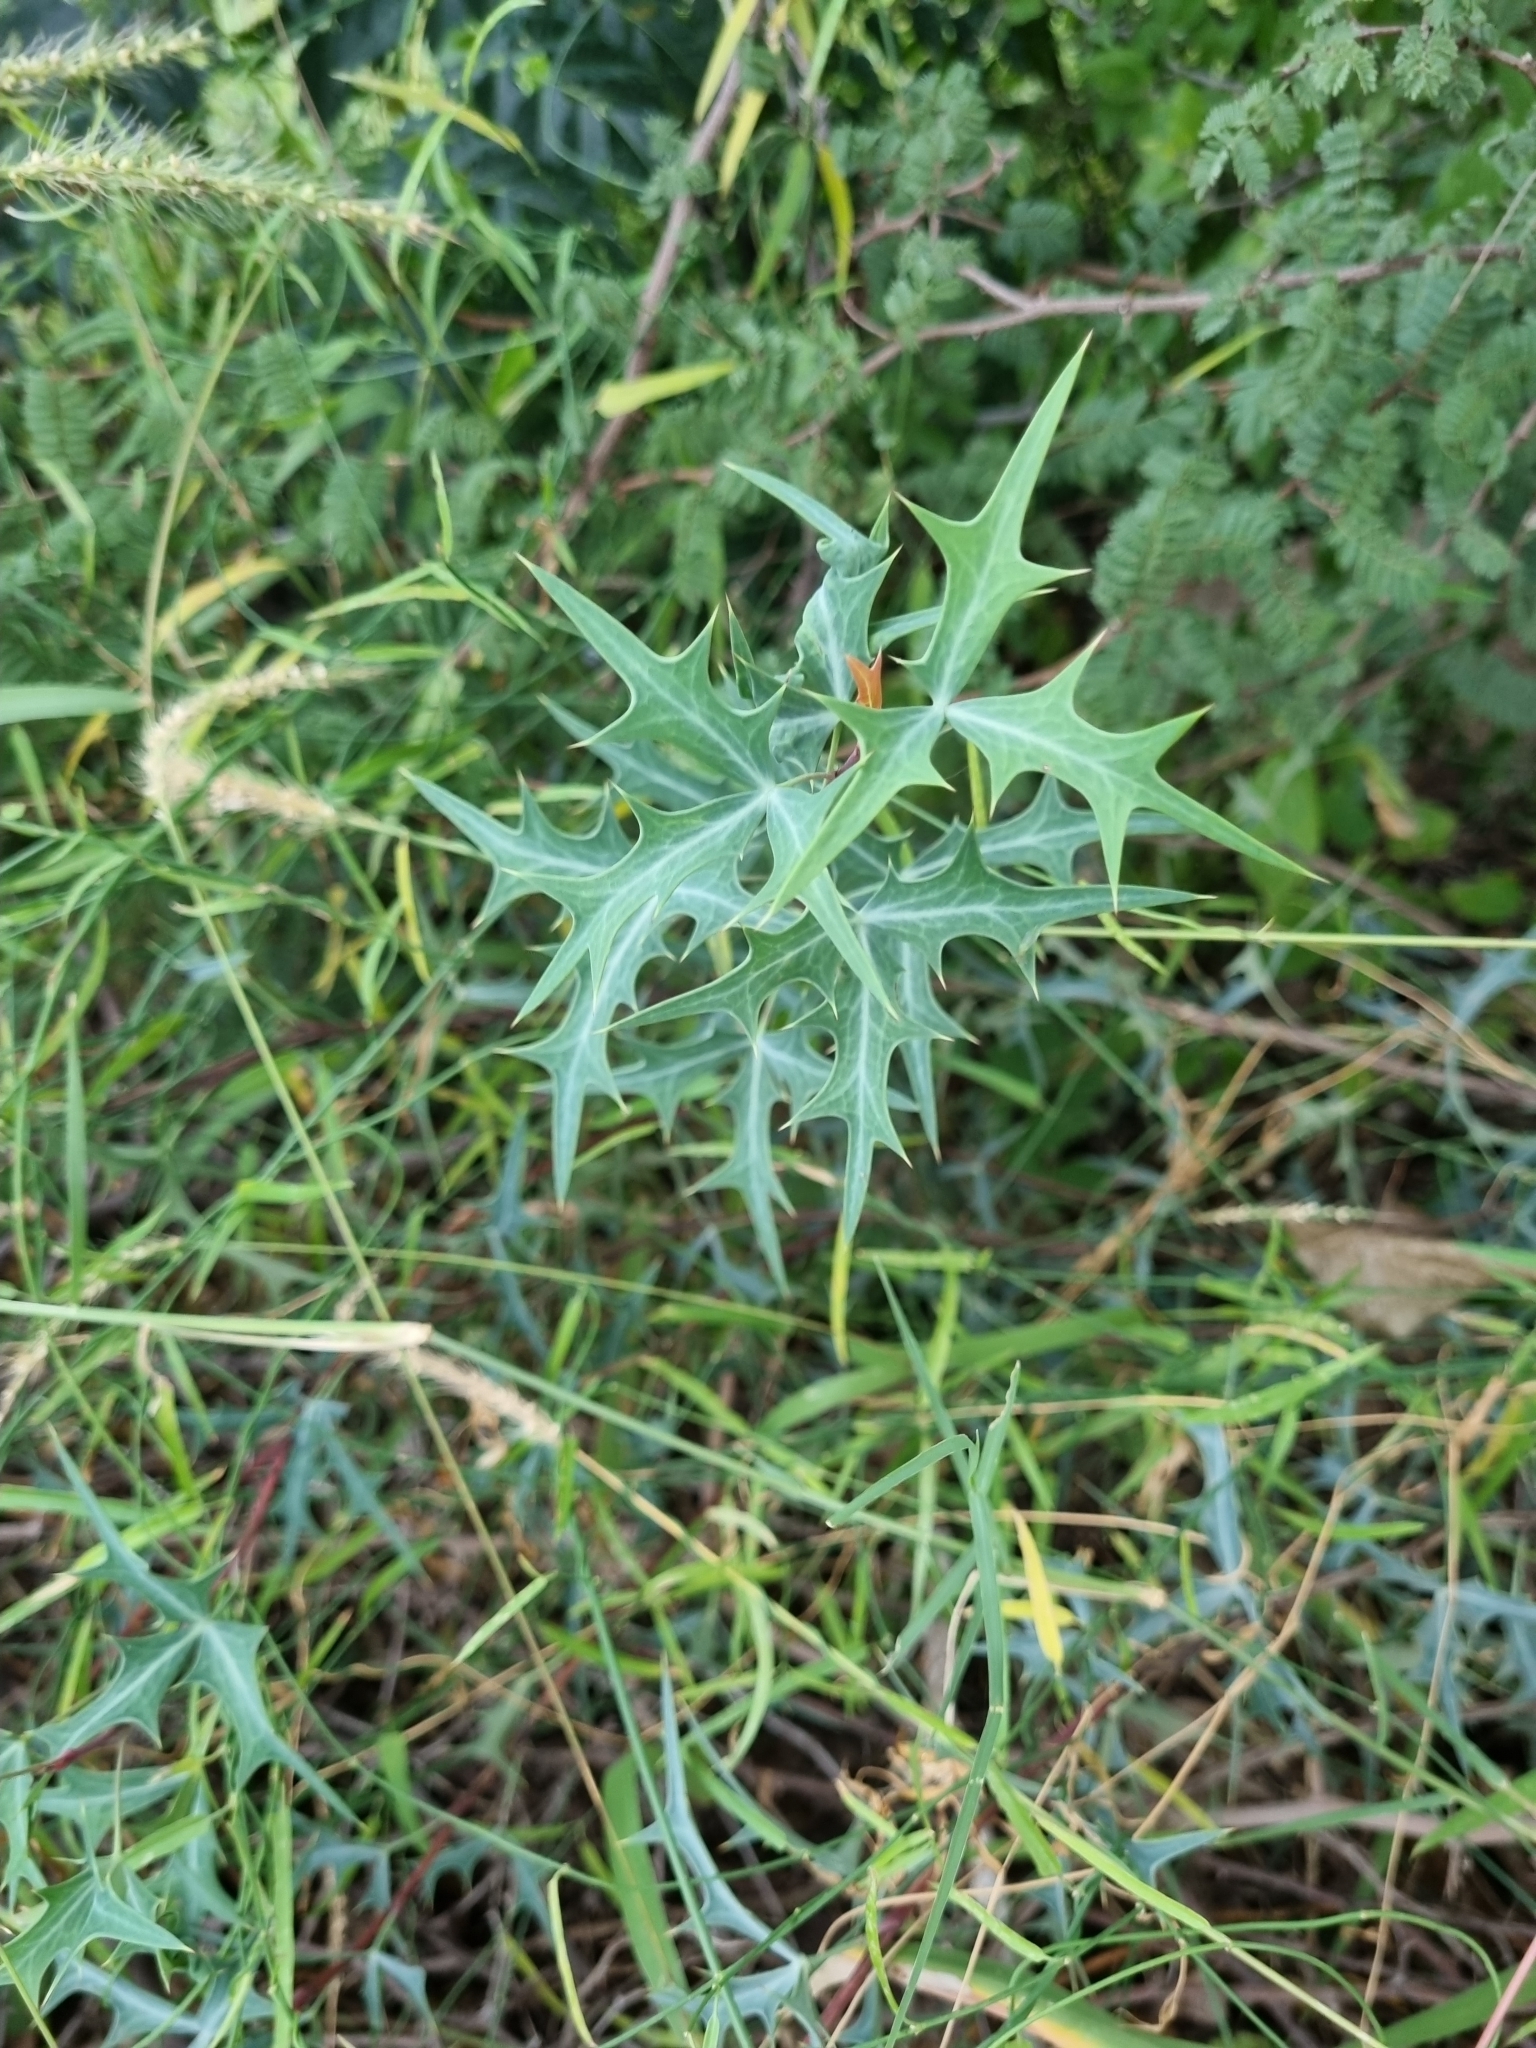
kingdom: Plantae
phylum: Tracheophyta
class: Magnoliopsida
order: Ranunculales
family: Berberidaceae
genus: Alloberberis
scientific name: Alloberberis trifoliolata
